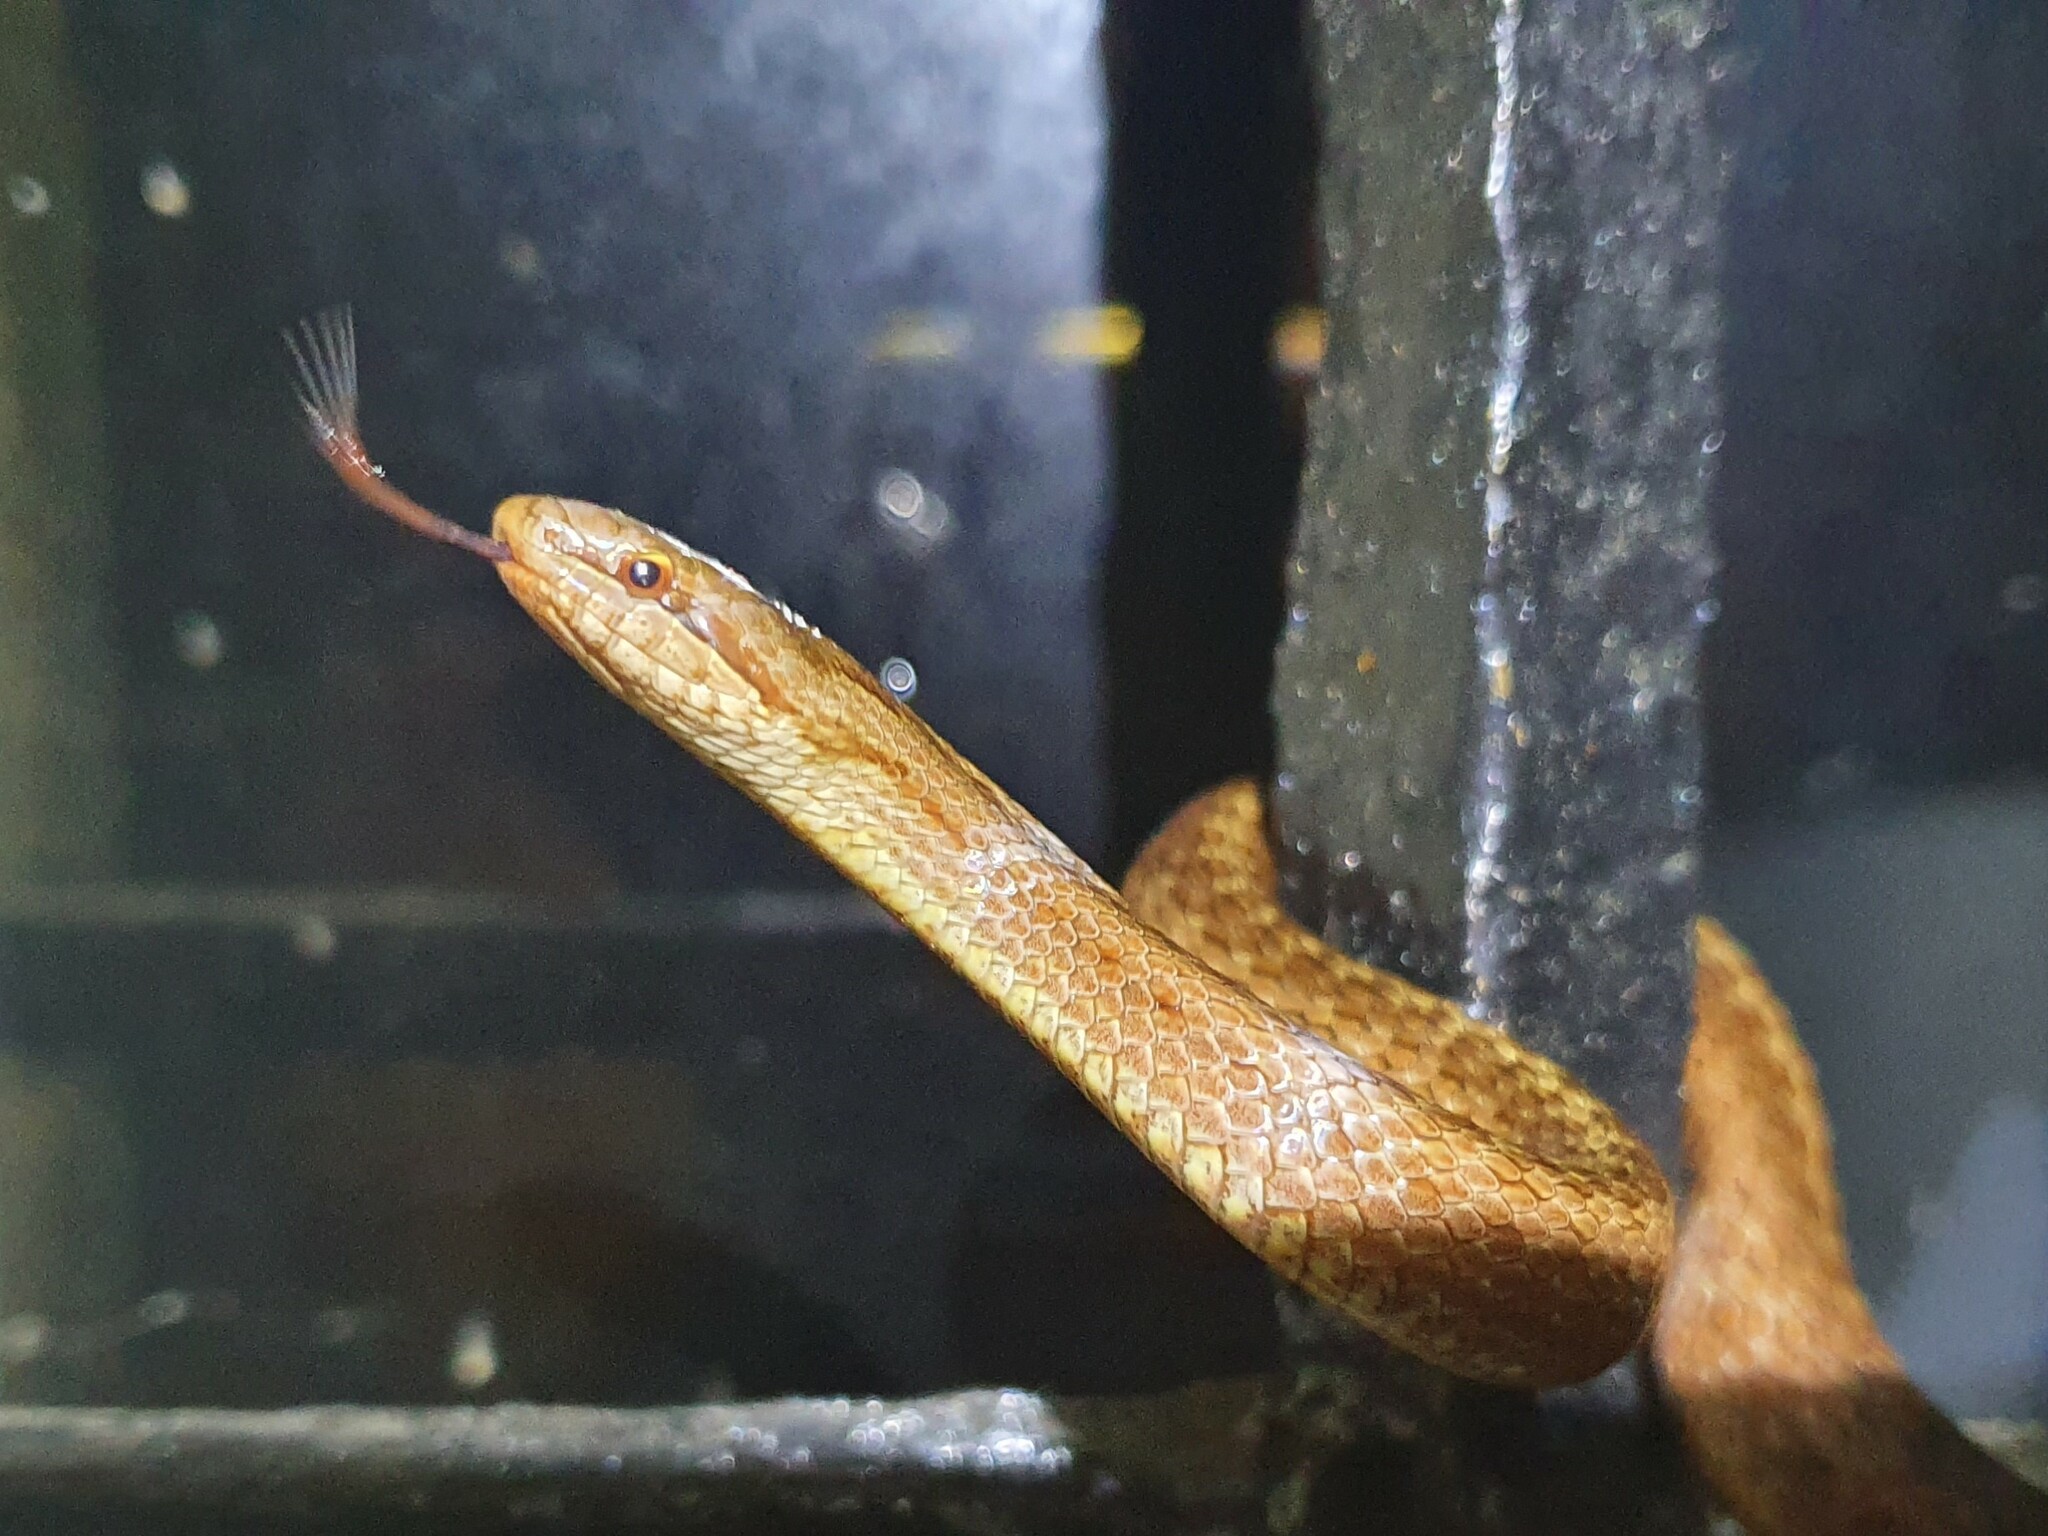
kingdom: Animalia
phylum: Chordata
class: Squamata
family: Colubridae
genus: Coronella
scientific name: Coronella austriaca
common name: Smooth snake
